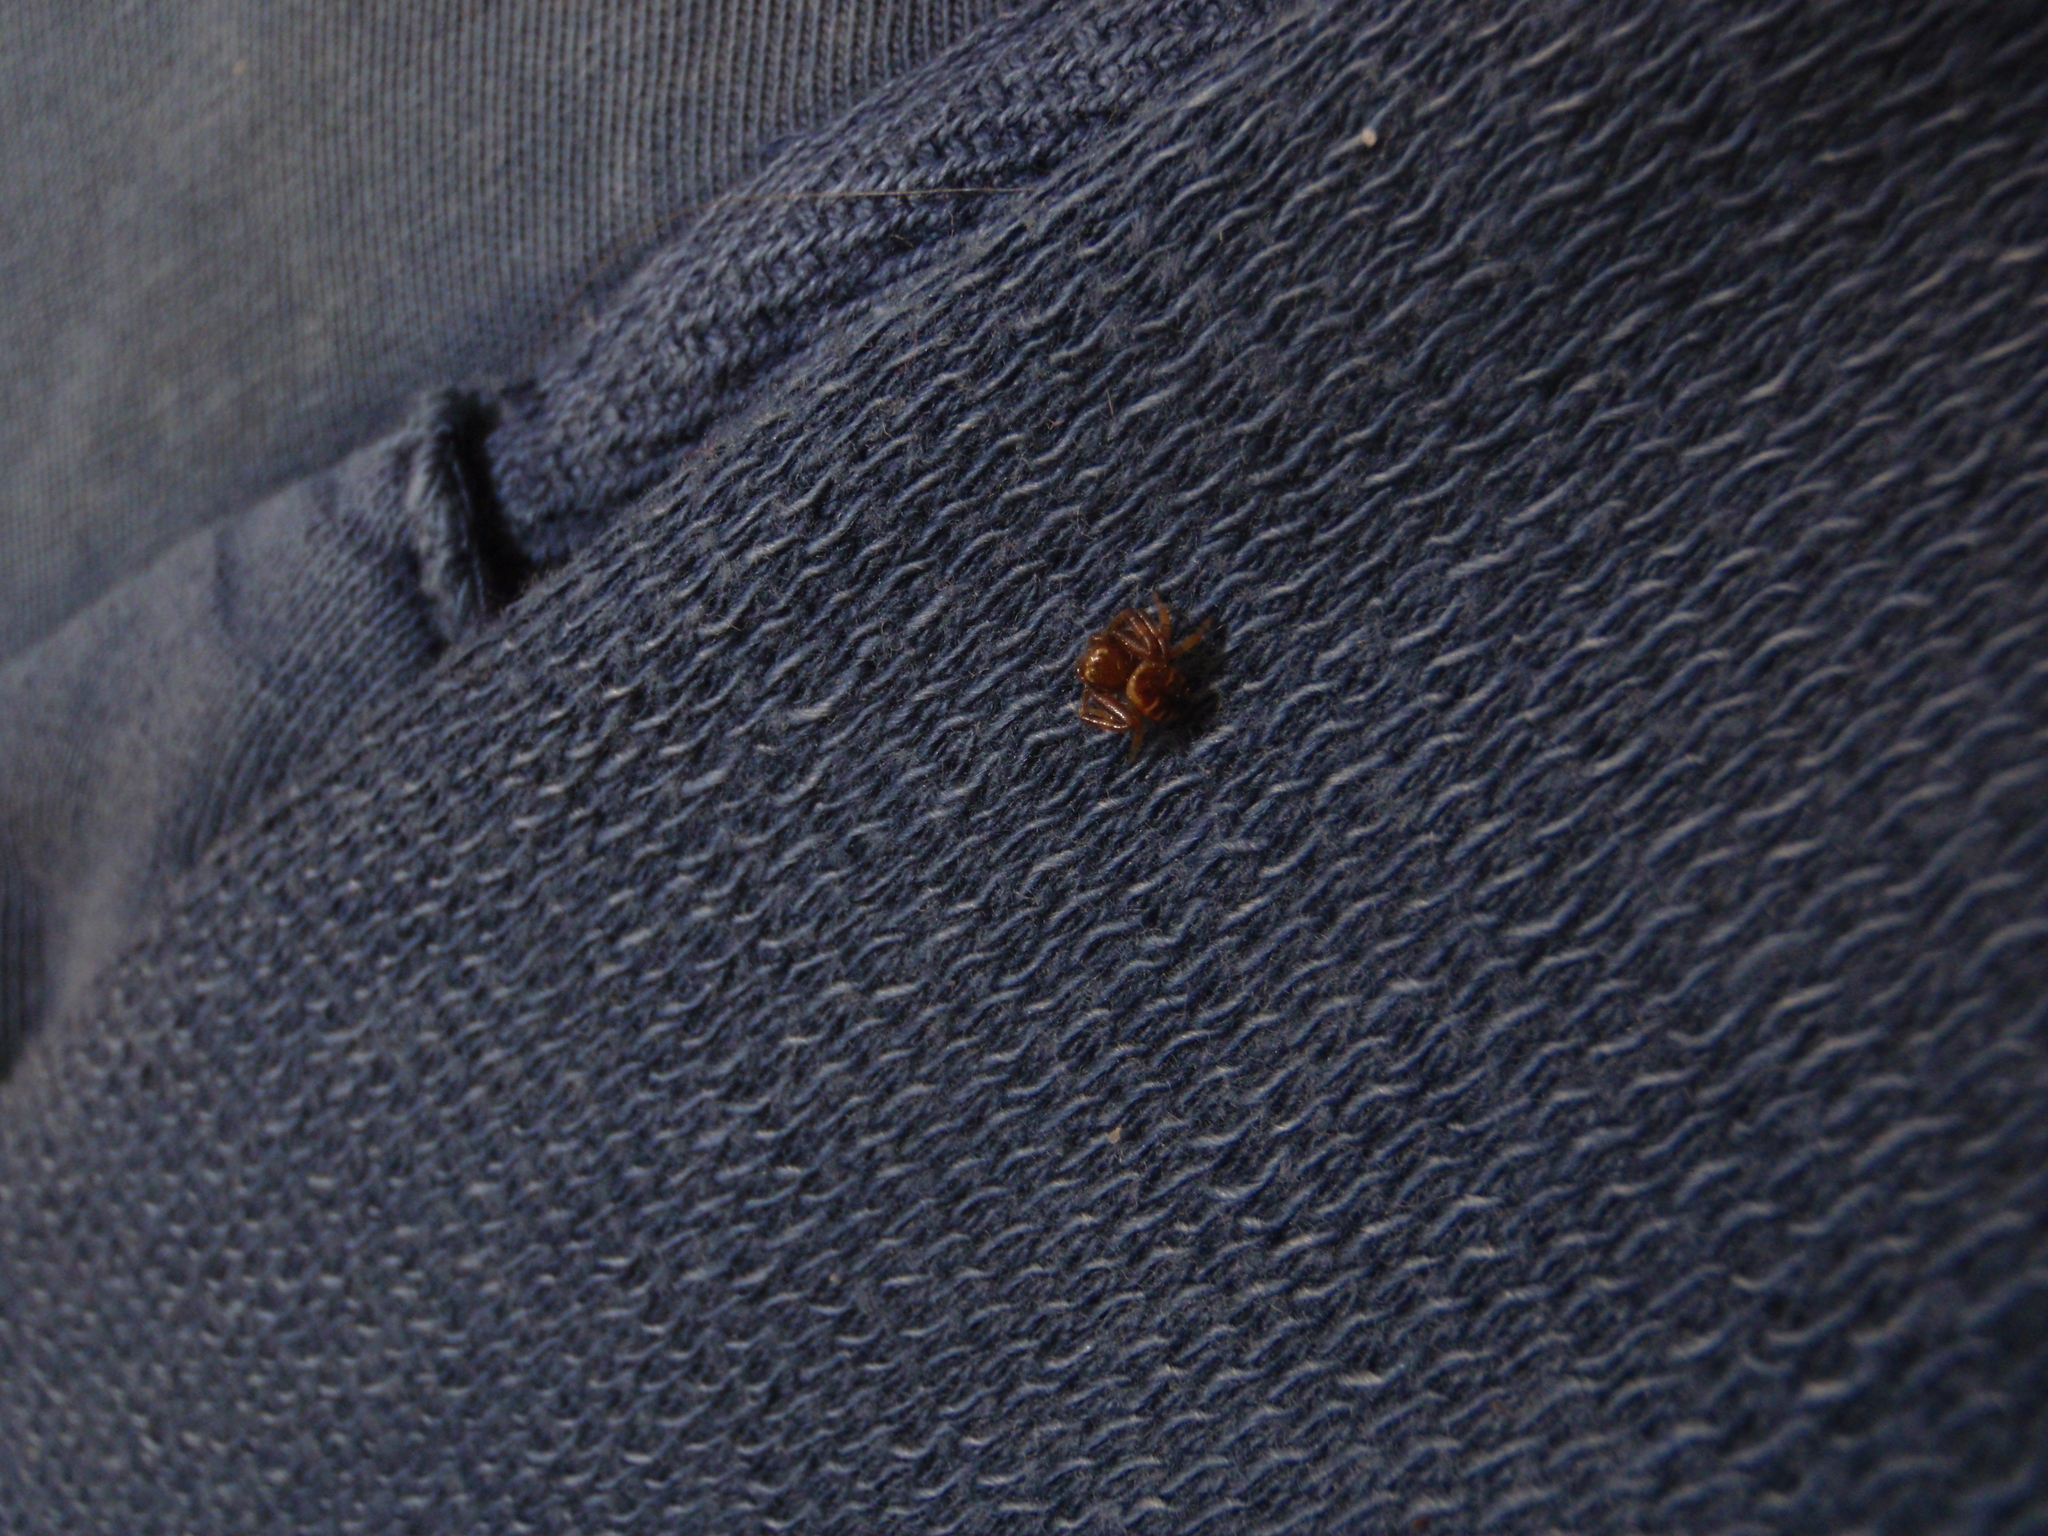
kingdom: Animalia
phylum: Arthropoda
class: Arachnida
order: Araneae
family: Thomisidae
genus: Synema
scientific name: Synema globosum
